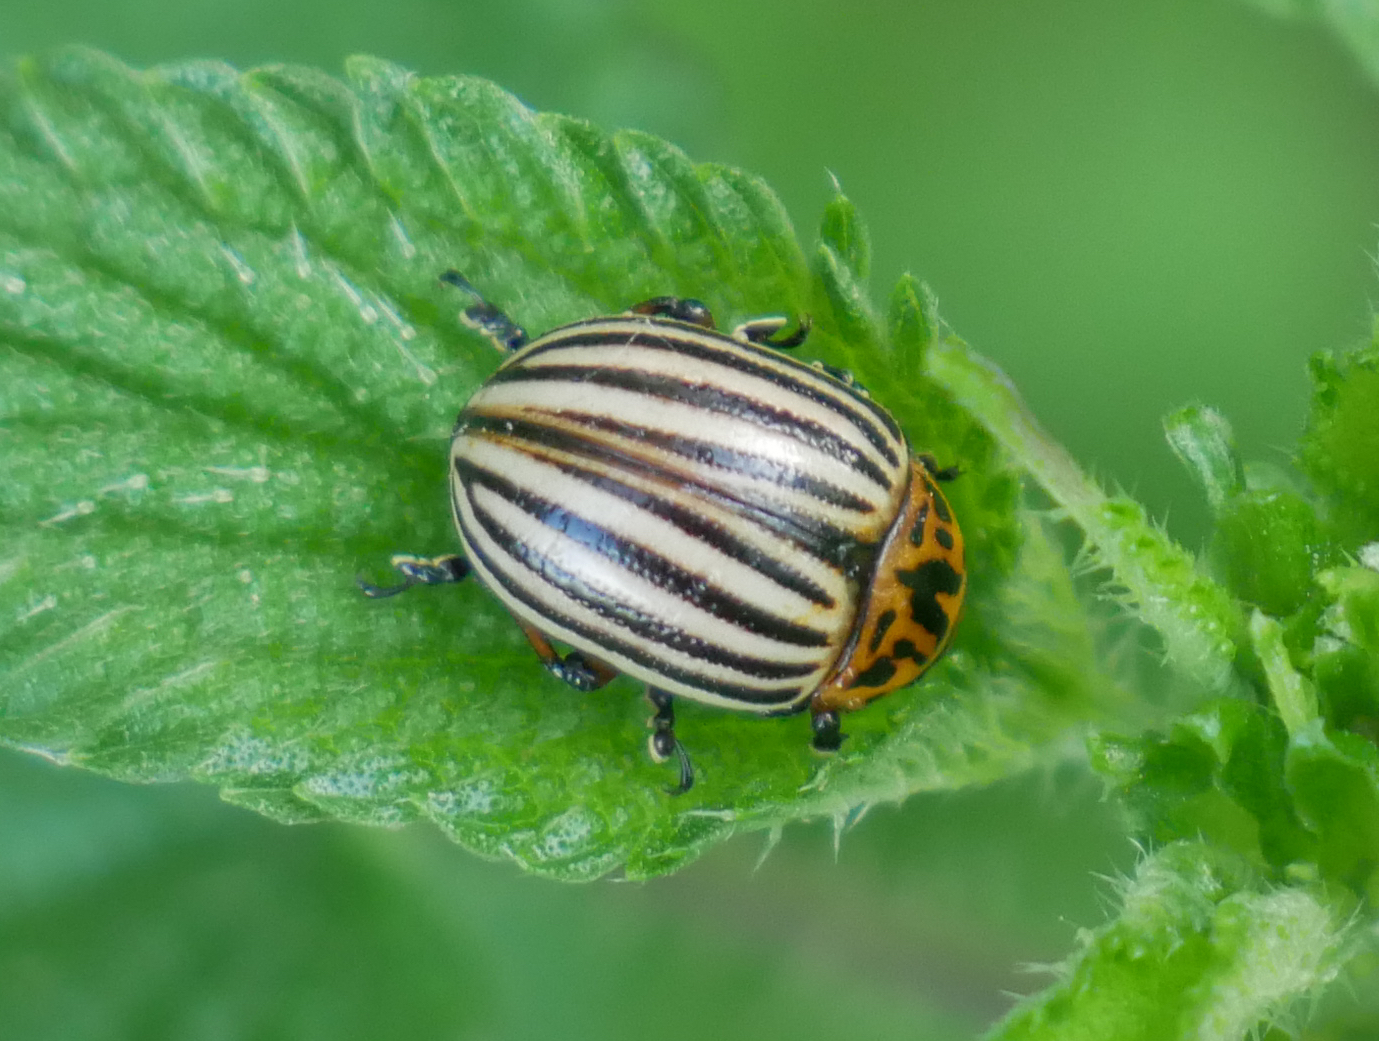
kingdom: Animalia
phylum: Arthropoda
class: Insecta
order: Coleoptera
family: Chrysomelidae
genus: Leptinotarsa
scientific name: Leptinotarsa decemlineata
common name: Colorado potato beetle
